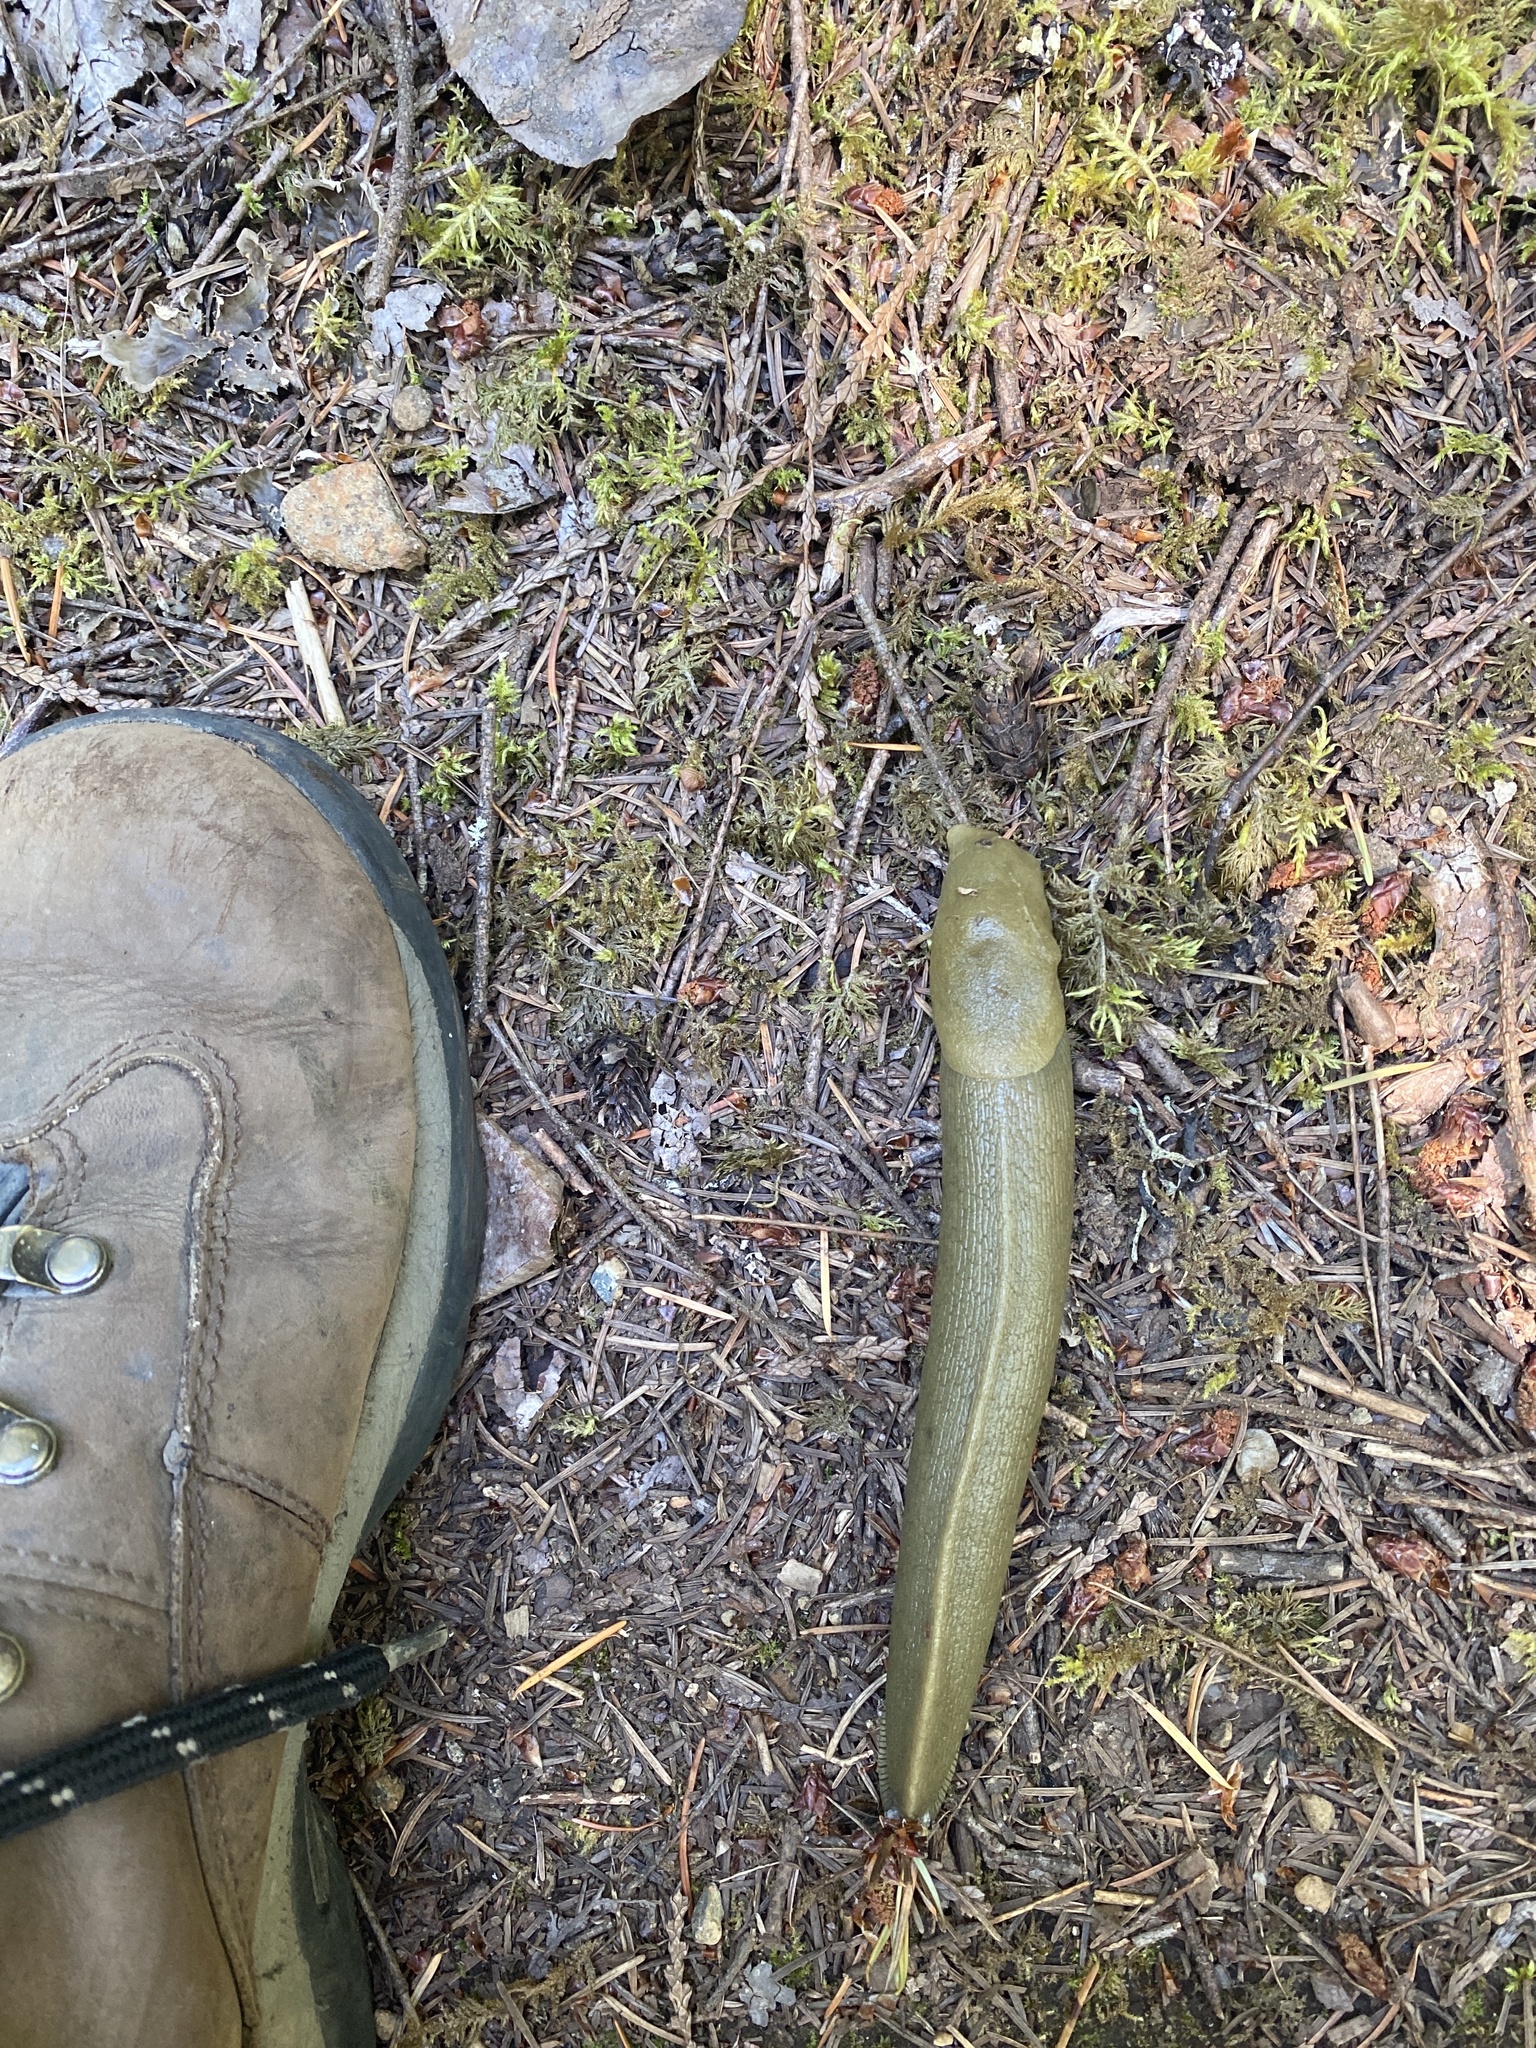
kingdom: Animalia
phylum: Mollusca
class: Gastropoda
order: Stylommatophora
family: Ariolimacidae
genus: Ariolimax
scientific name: Ariolimax columbianus
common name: Pacific banana slug
